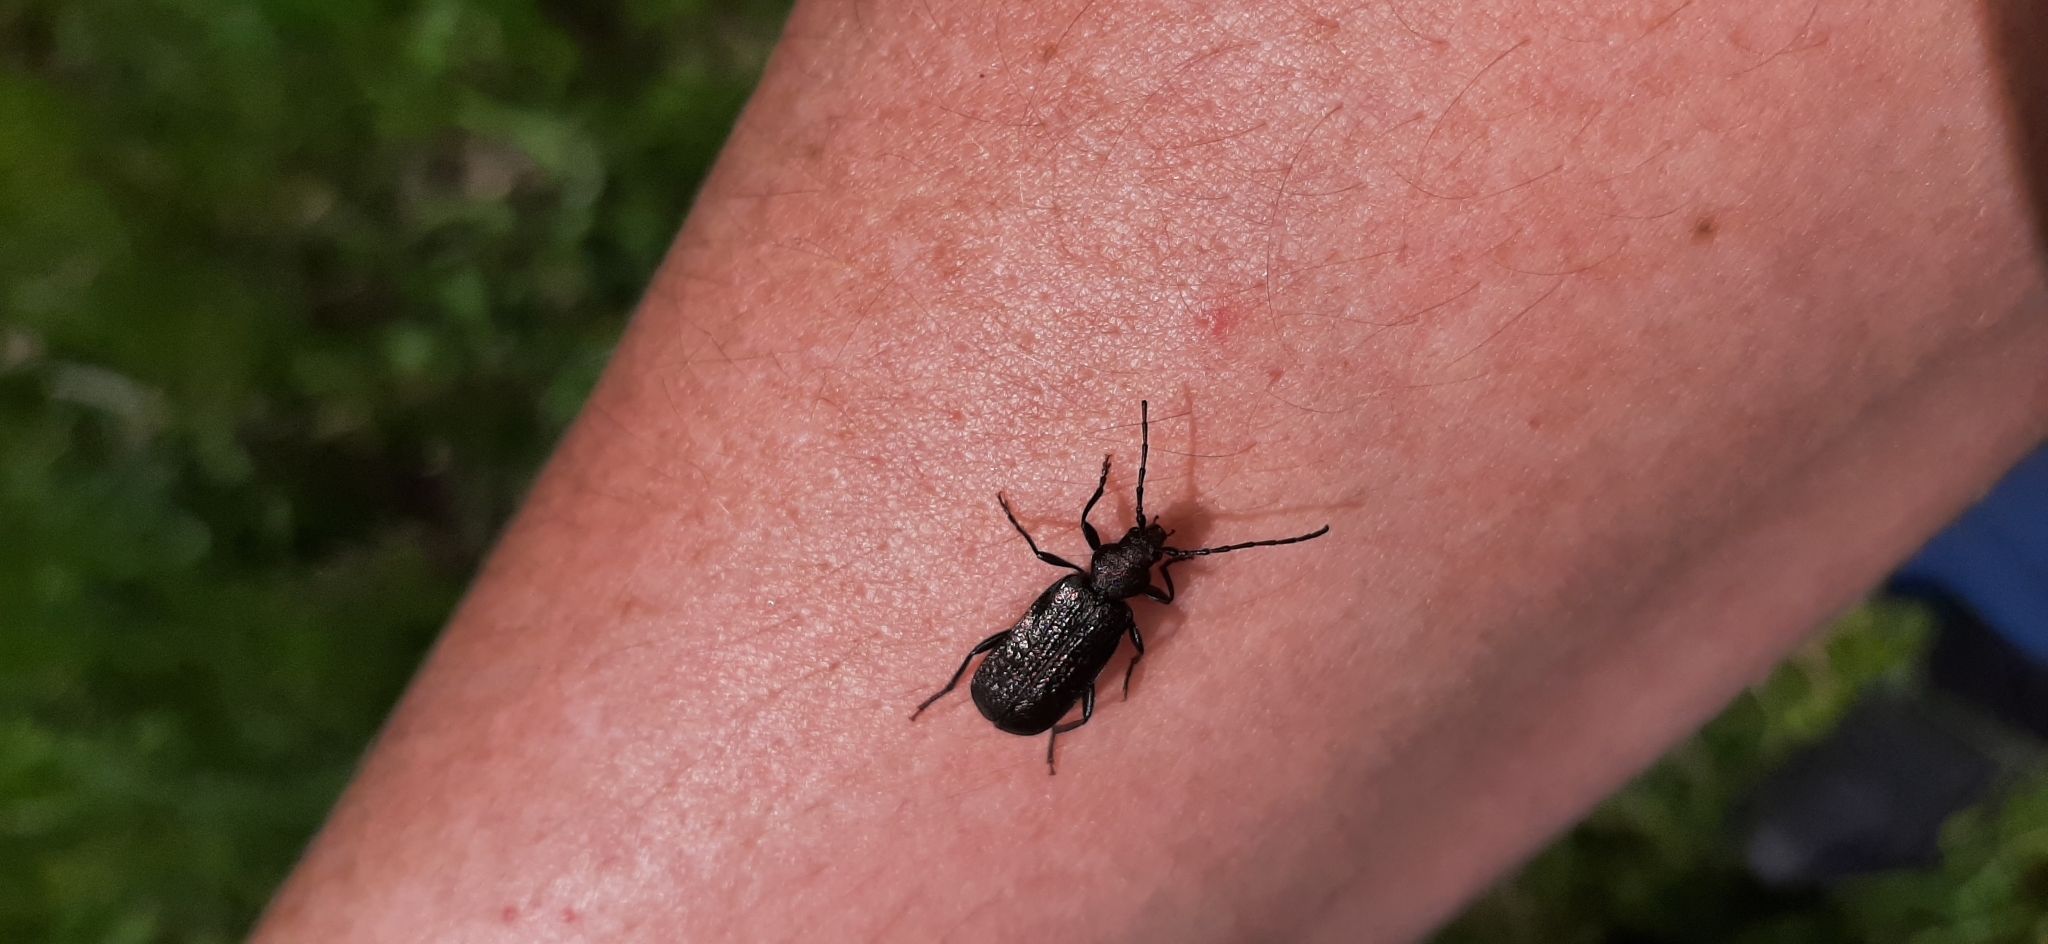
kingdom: Animalia
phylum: Arthropoda
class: Insecta
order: Coleoptera
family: Cerambycidae
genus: Callidium
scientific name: Callidium aeneum
